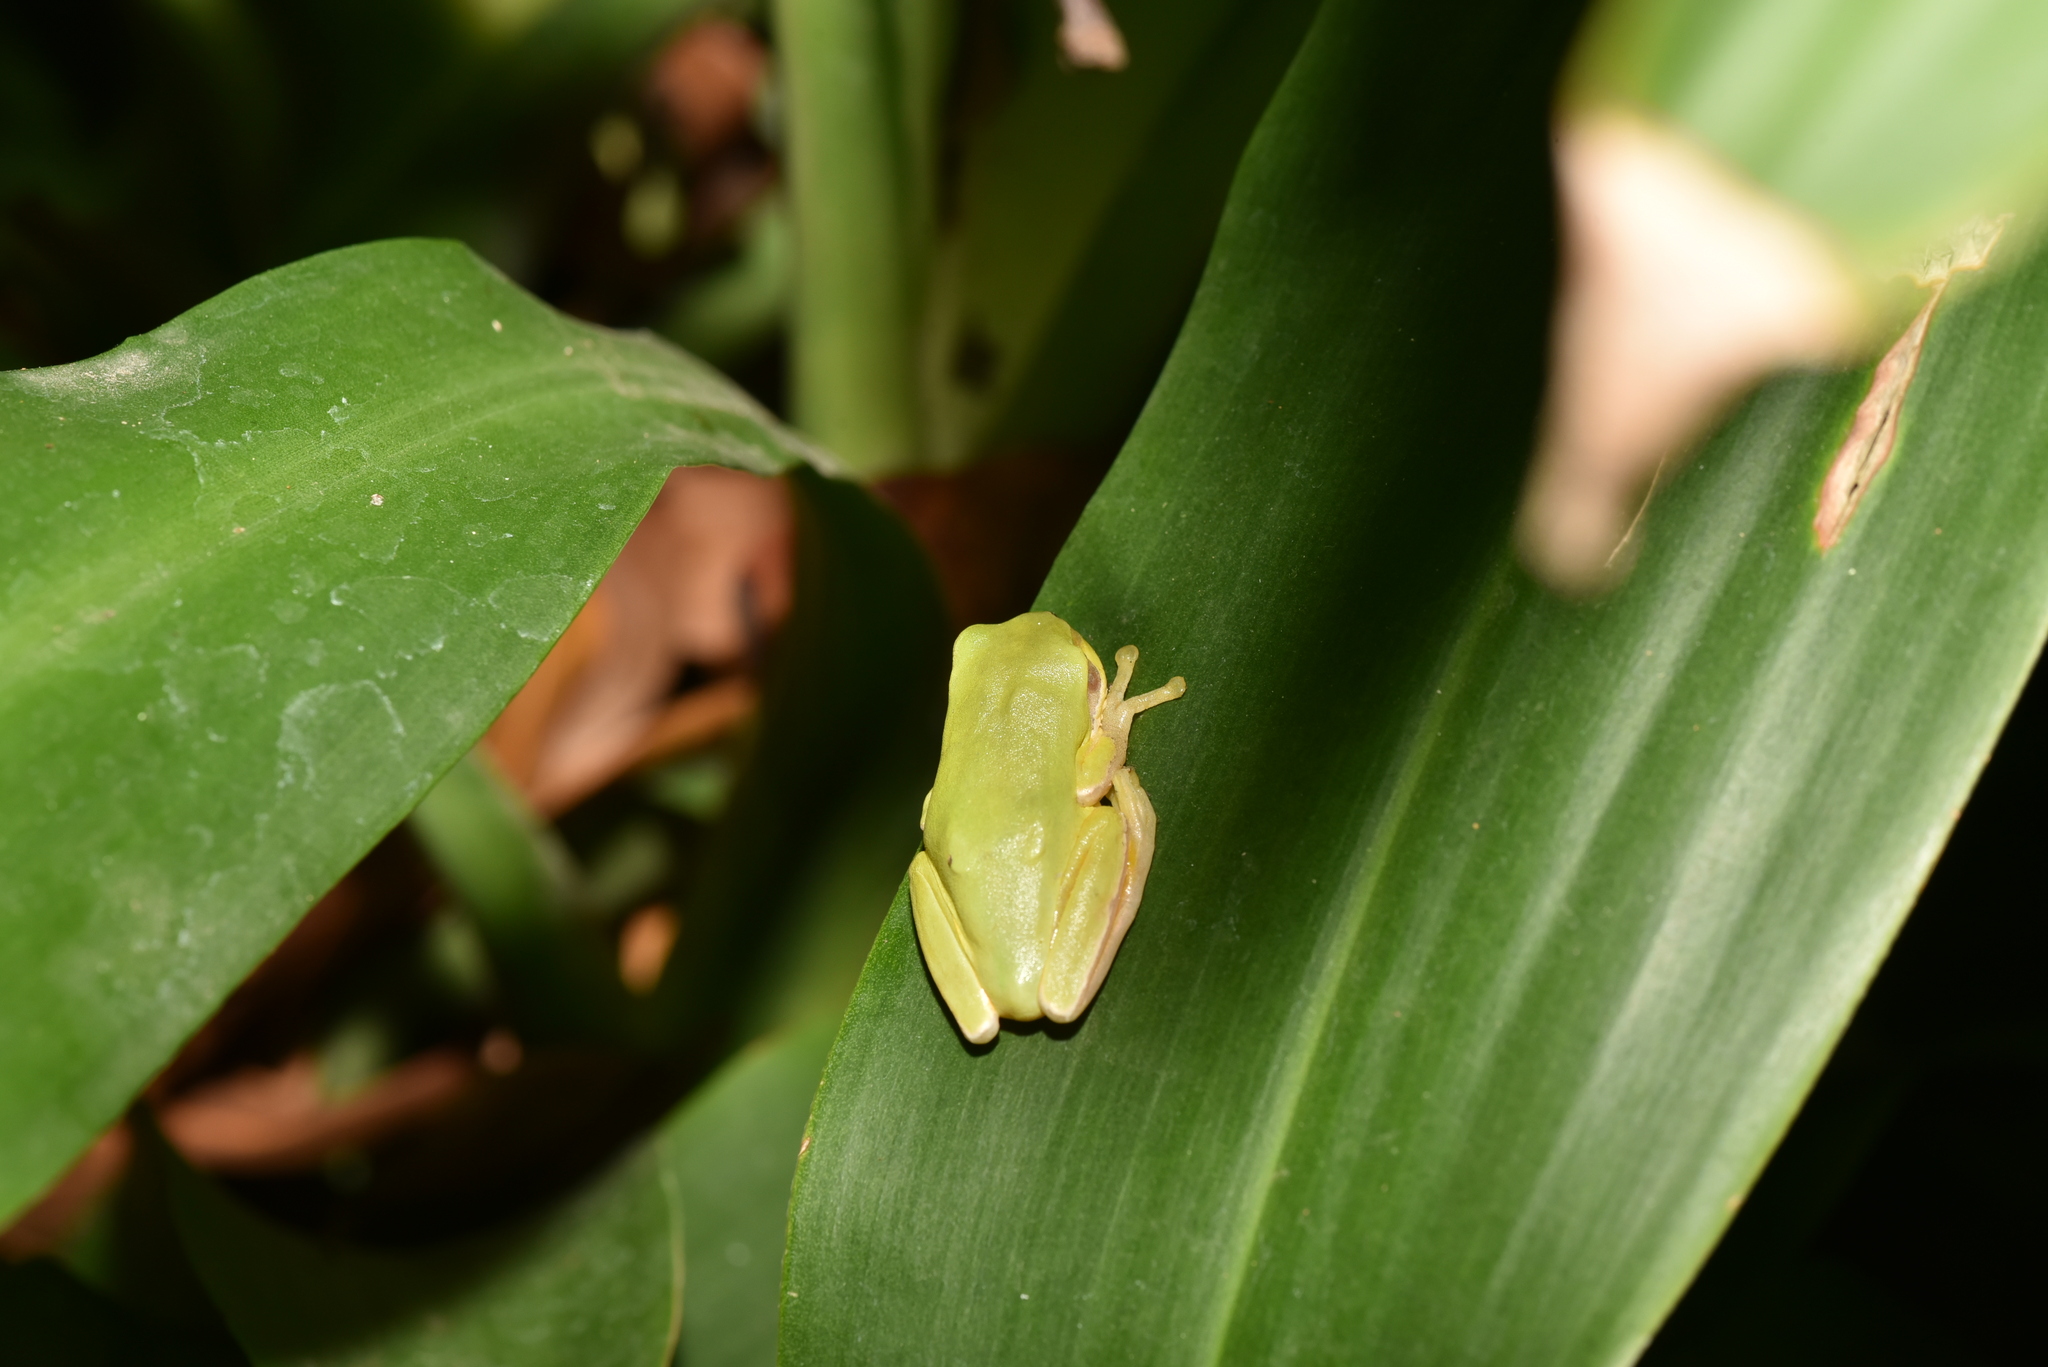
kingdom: Animalia
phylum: Chordata
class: Amphibia
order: Anura
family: Hylidae
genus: Hyla
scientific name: Hyla chinensis
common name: Common chinese treefrog
